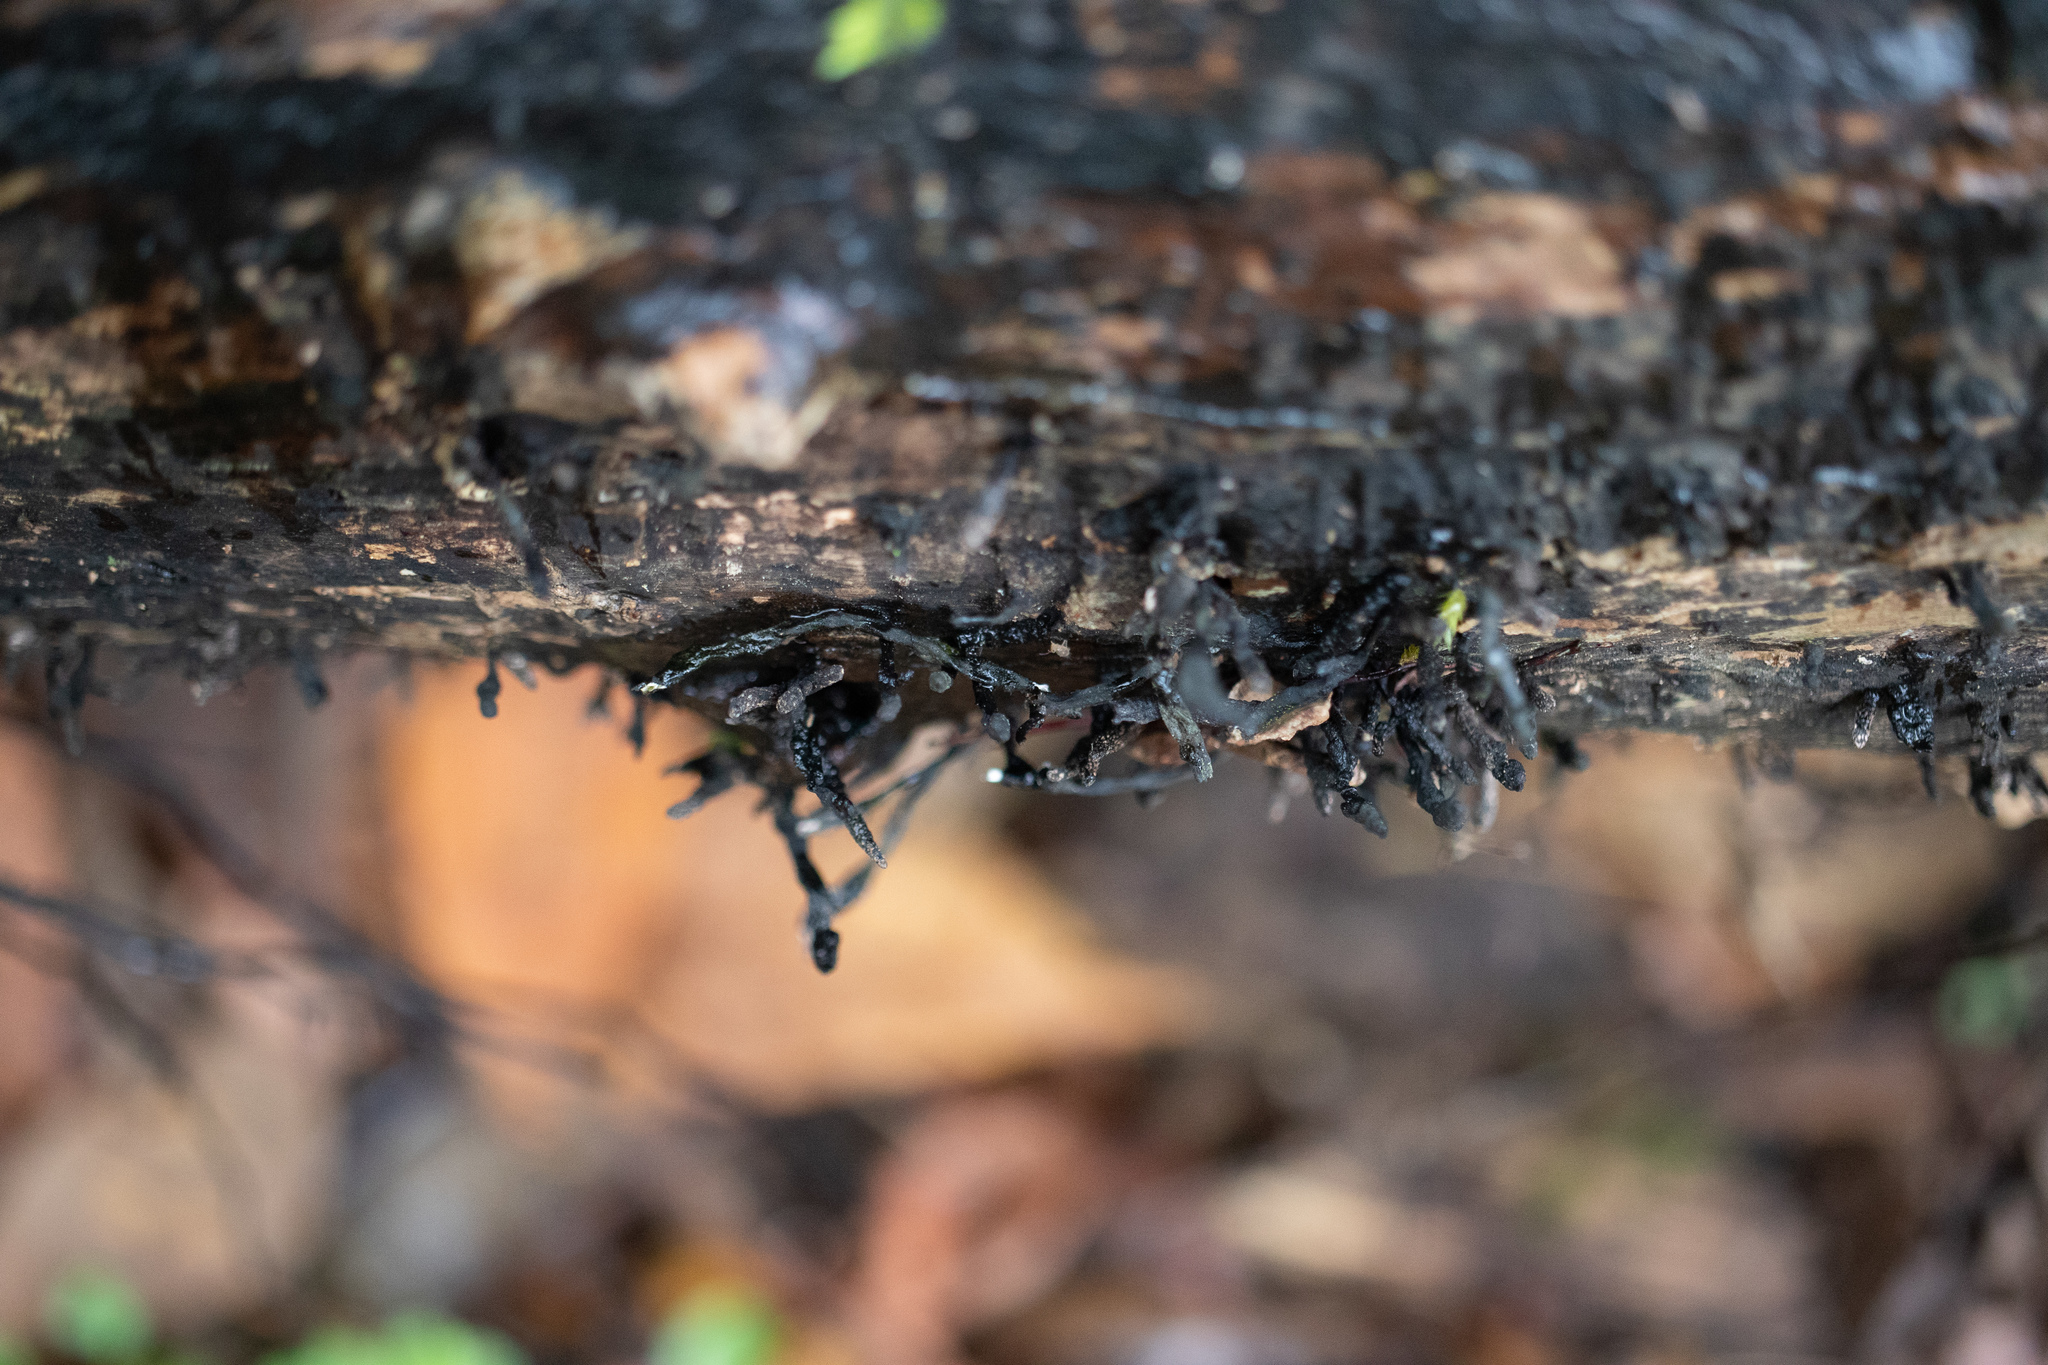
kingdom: Fungi
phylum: Ascomycota
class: Sordariomycetes
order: Xylariales
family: Xylariaceae
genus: Xylaria
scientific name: Xylaria
